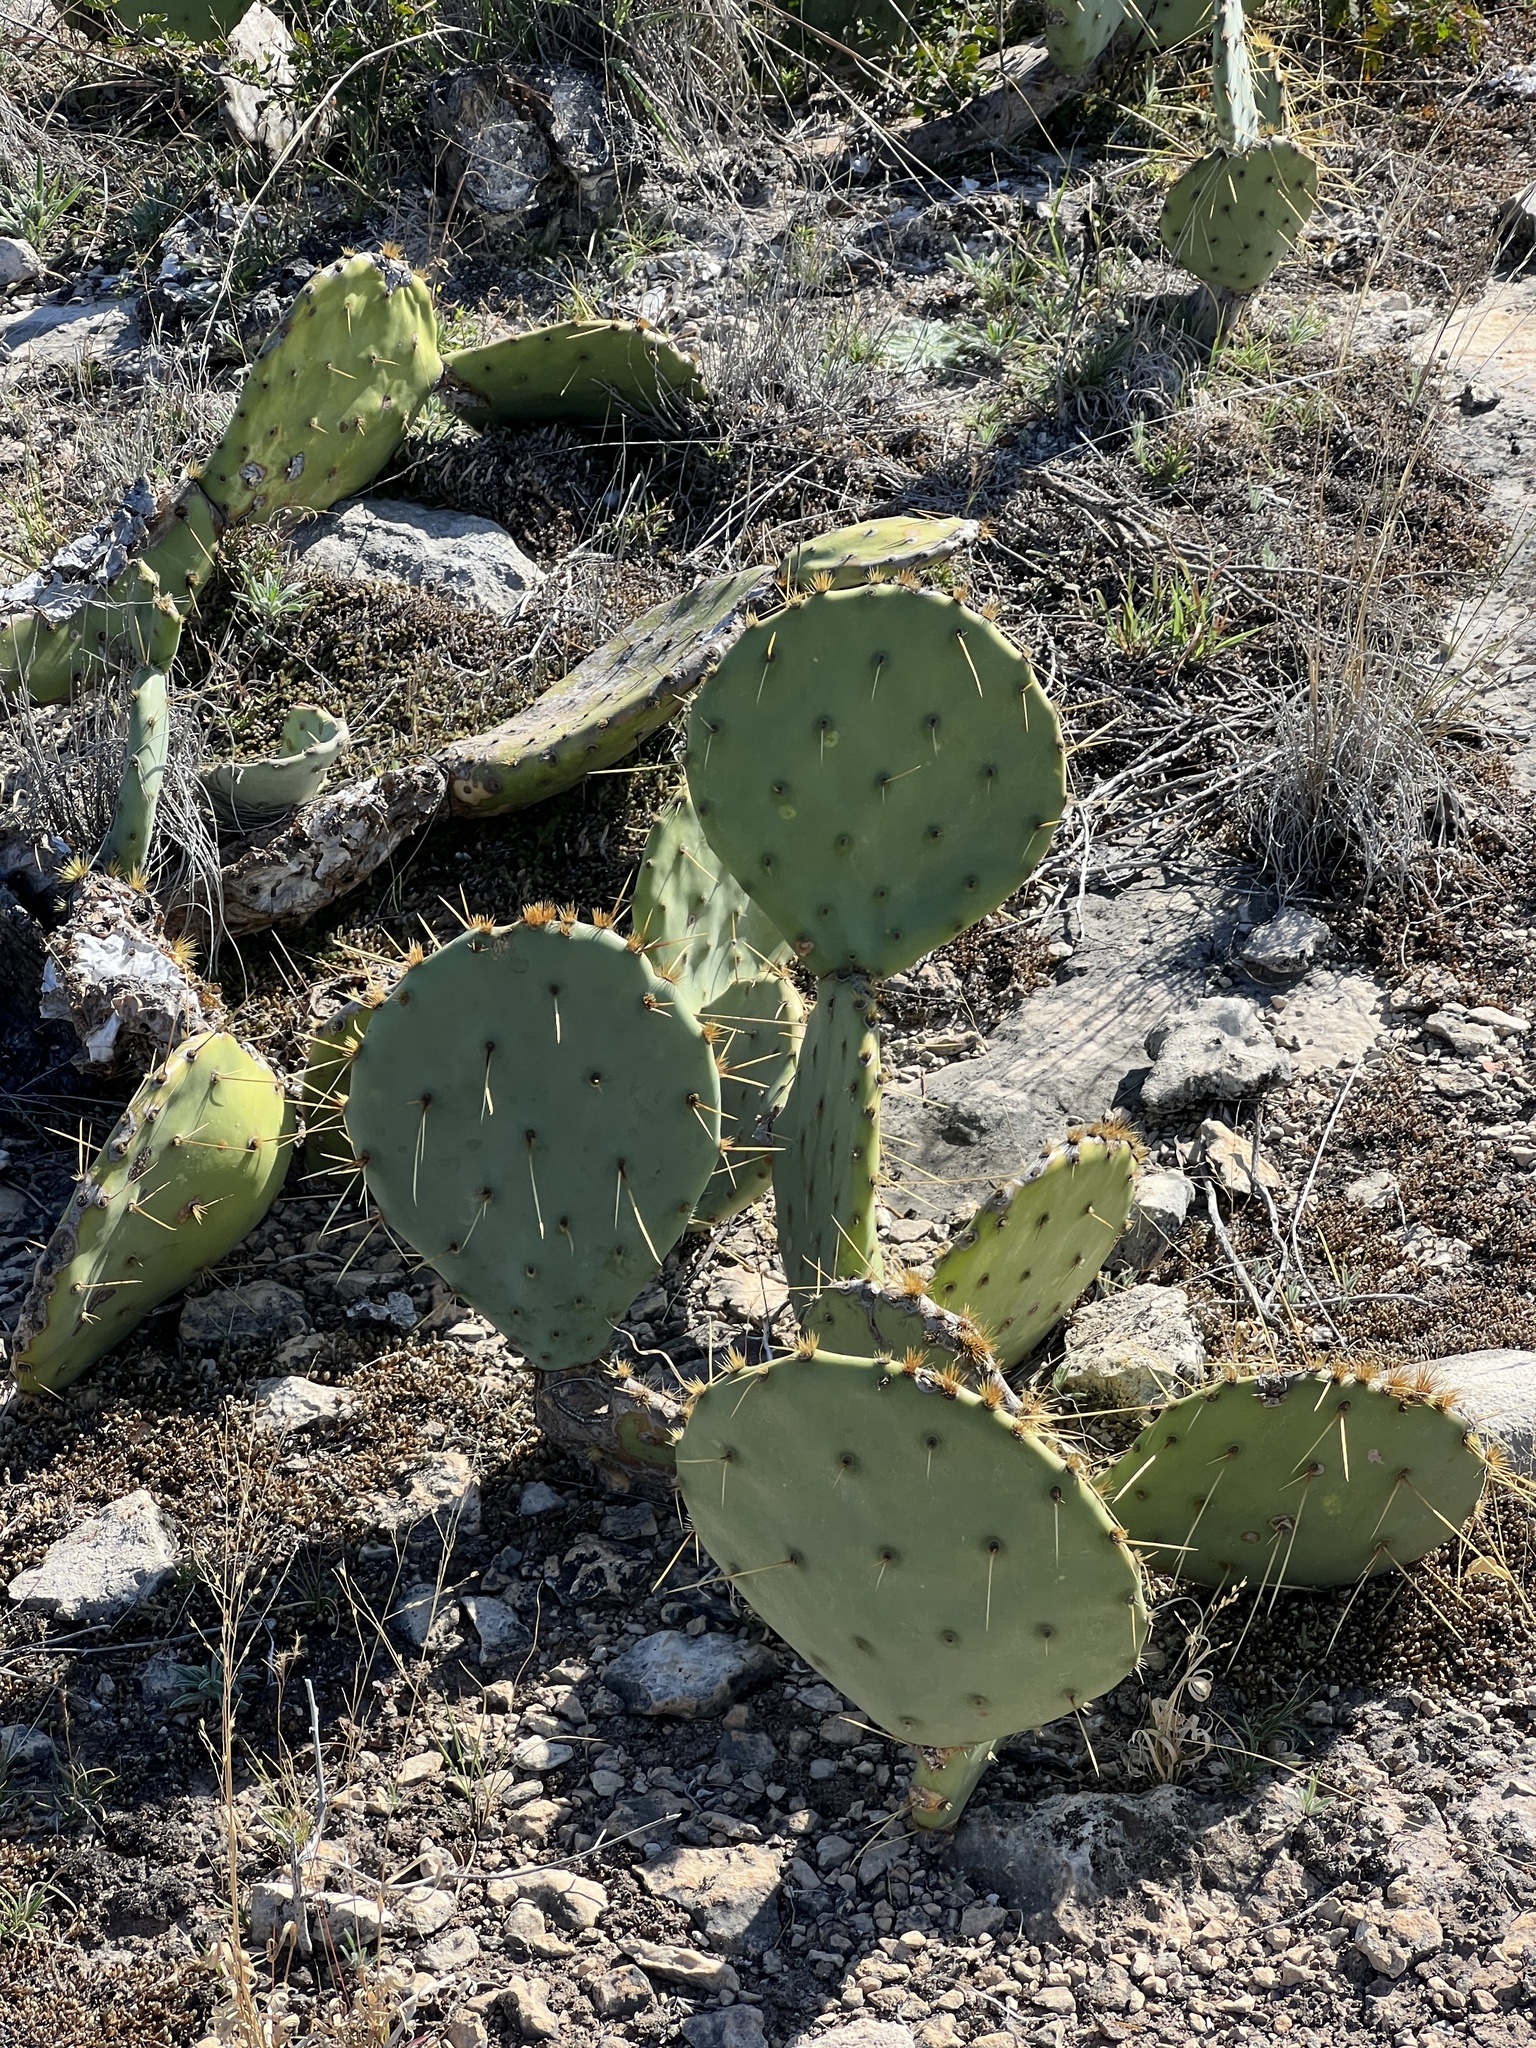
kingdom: Plantae
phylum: Tracheophyta
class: Magnoliopsida
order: Caryophyllales
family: Cactaceae
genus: Opuntia
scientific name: Opuntia macrorhiza
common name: Grassland pricklypear
